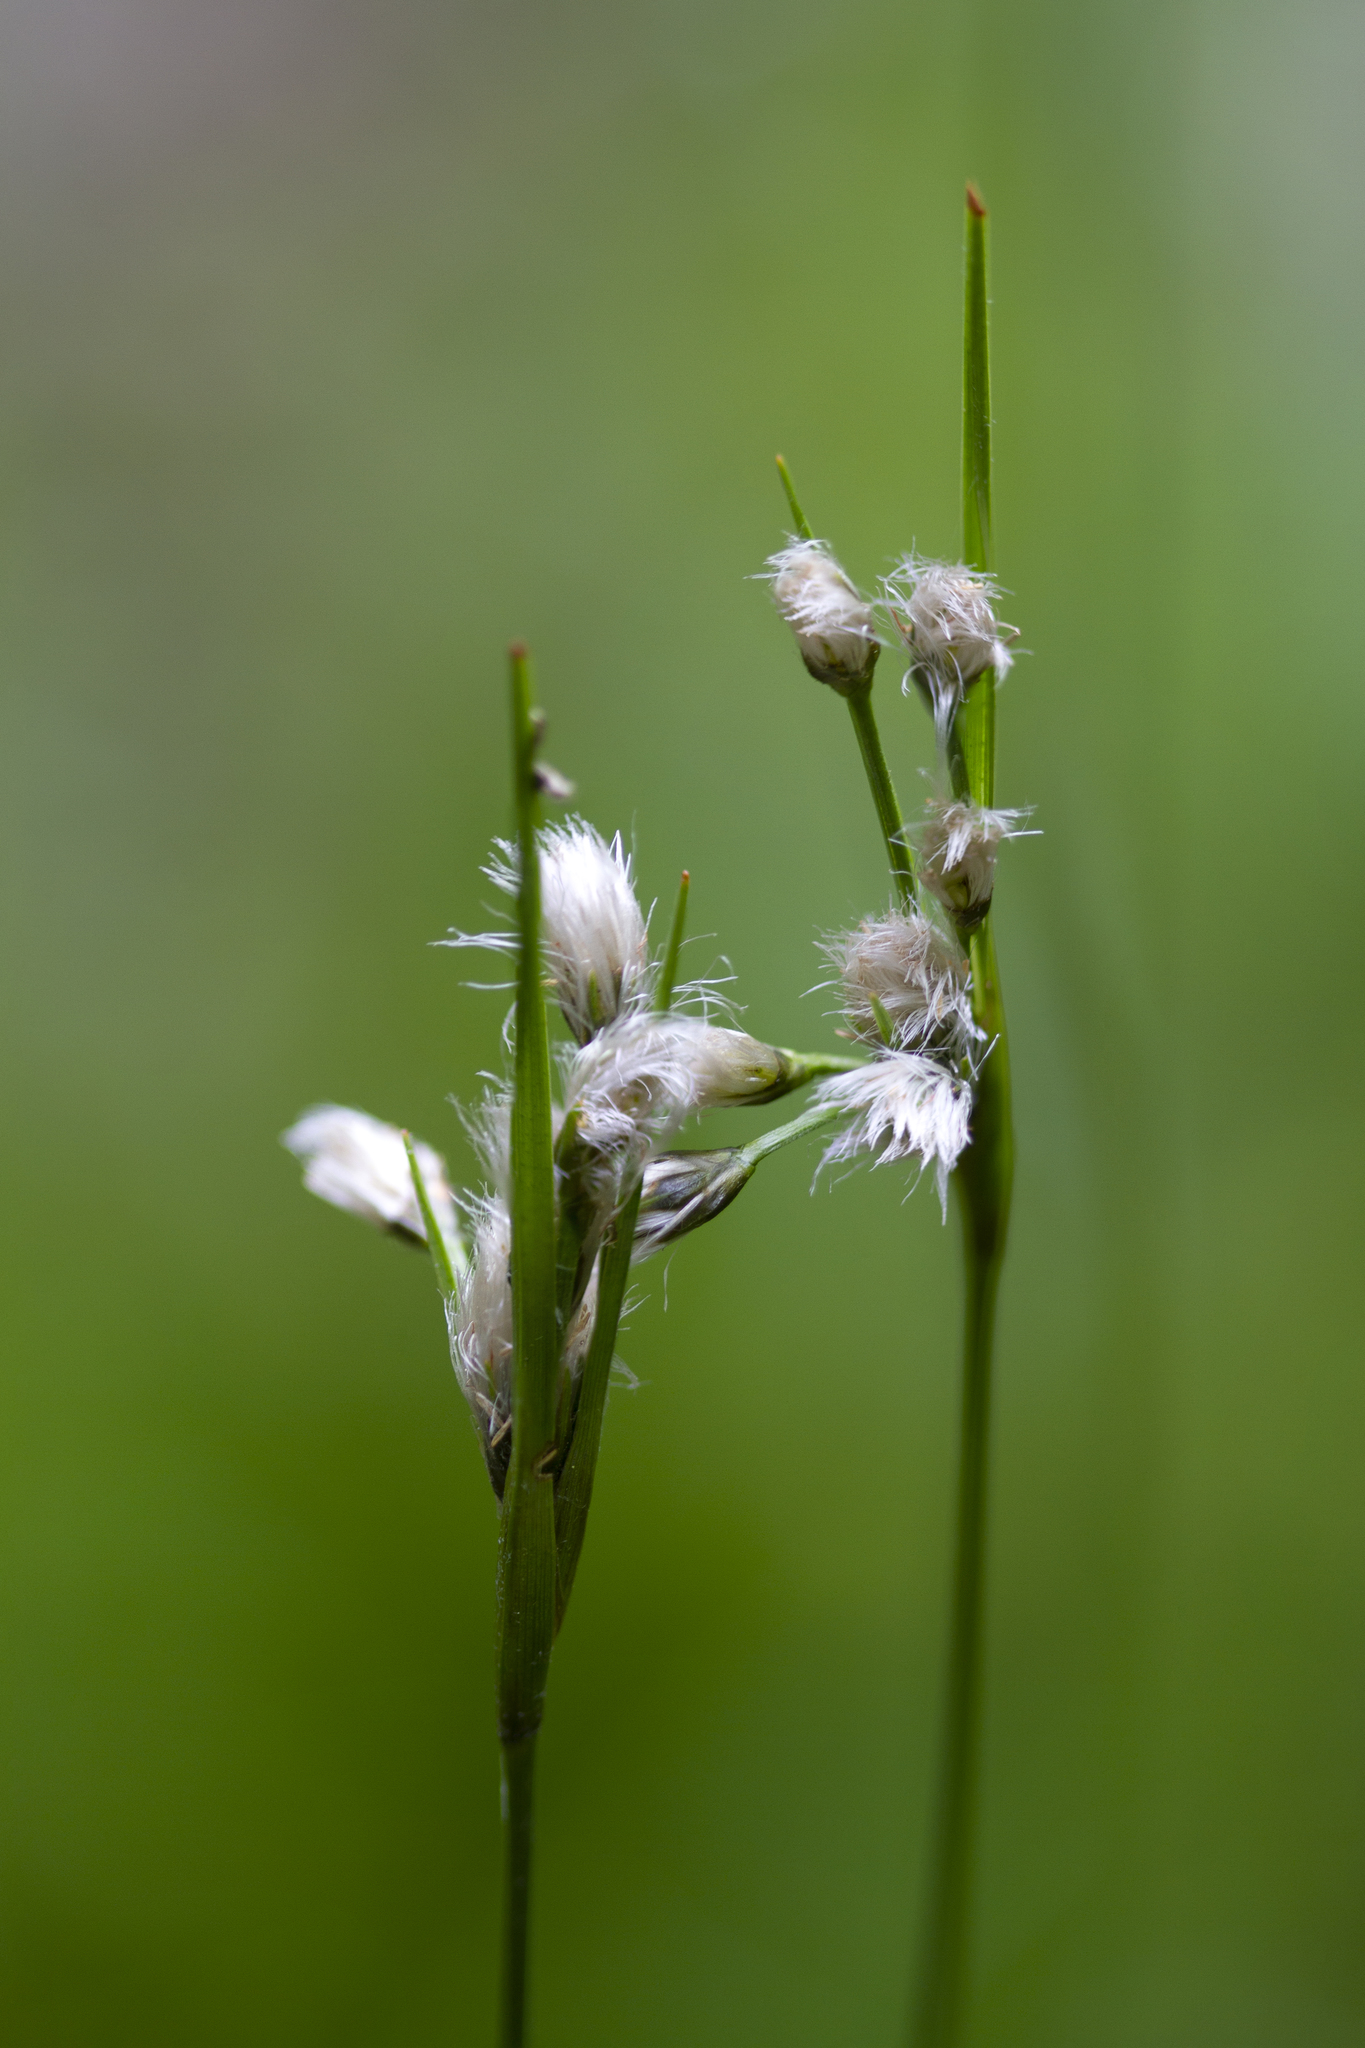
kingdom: Plantae
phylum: Tracheophyta
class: Liliopsida
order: Poales
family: Cyperaceae
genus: Eriophorum
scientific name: Eriophorum viridicarinatum
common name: Green-keeled cottongrass
